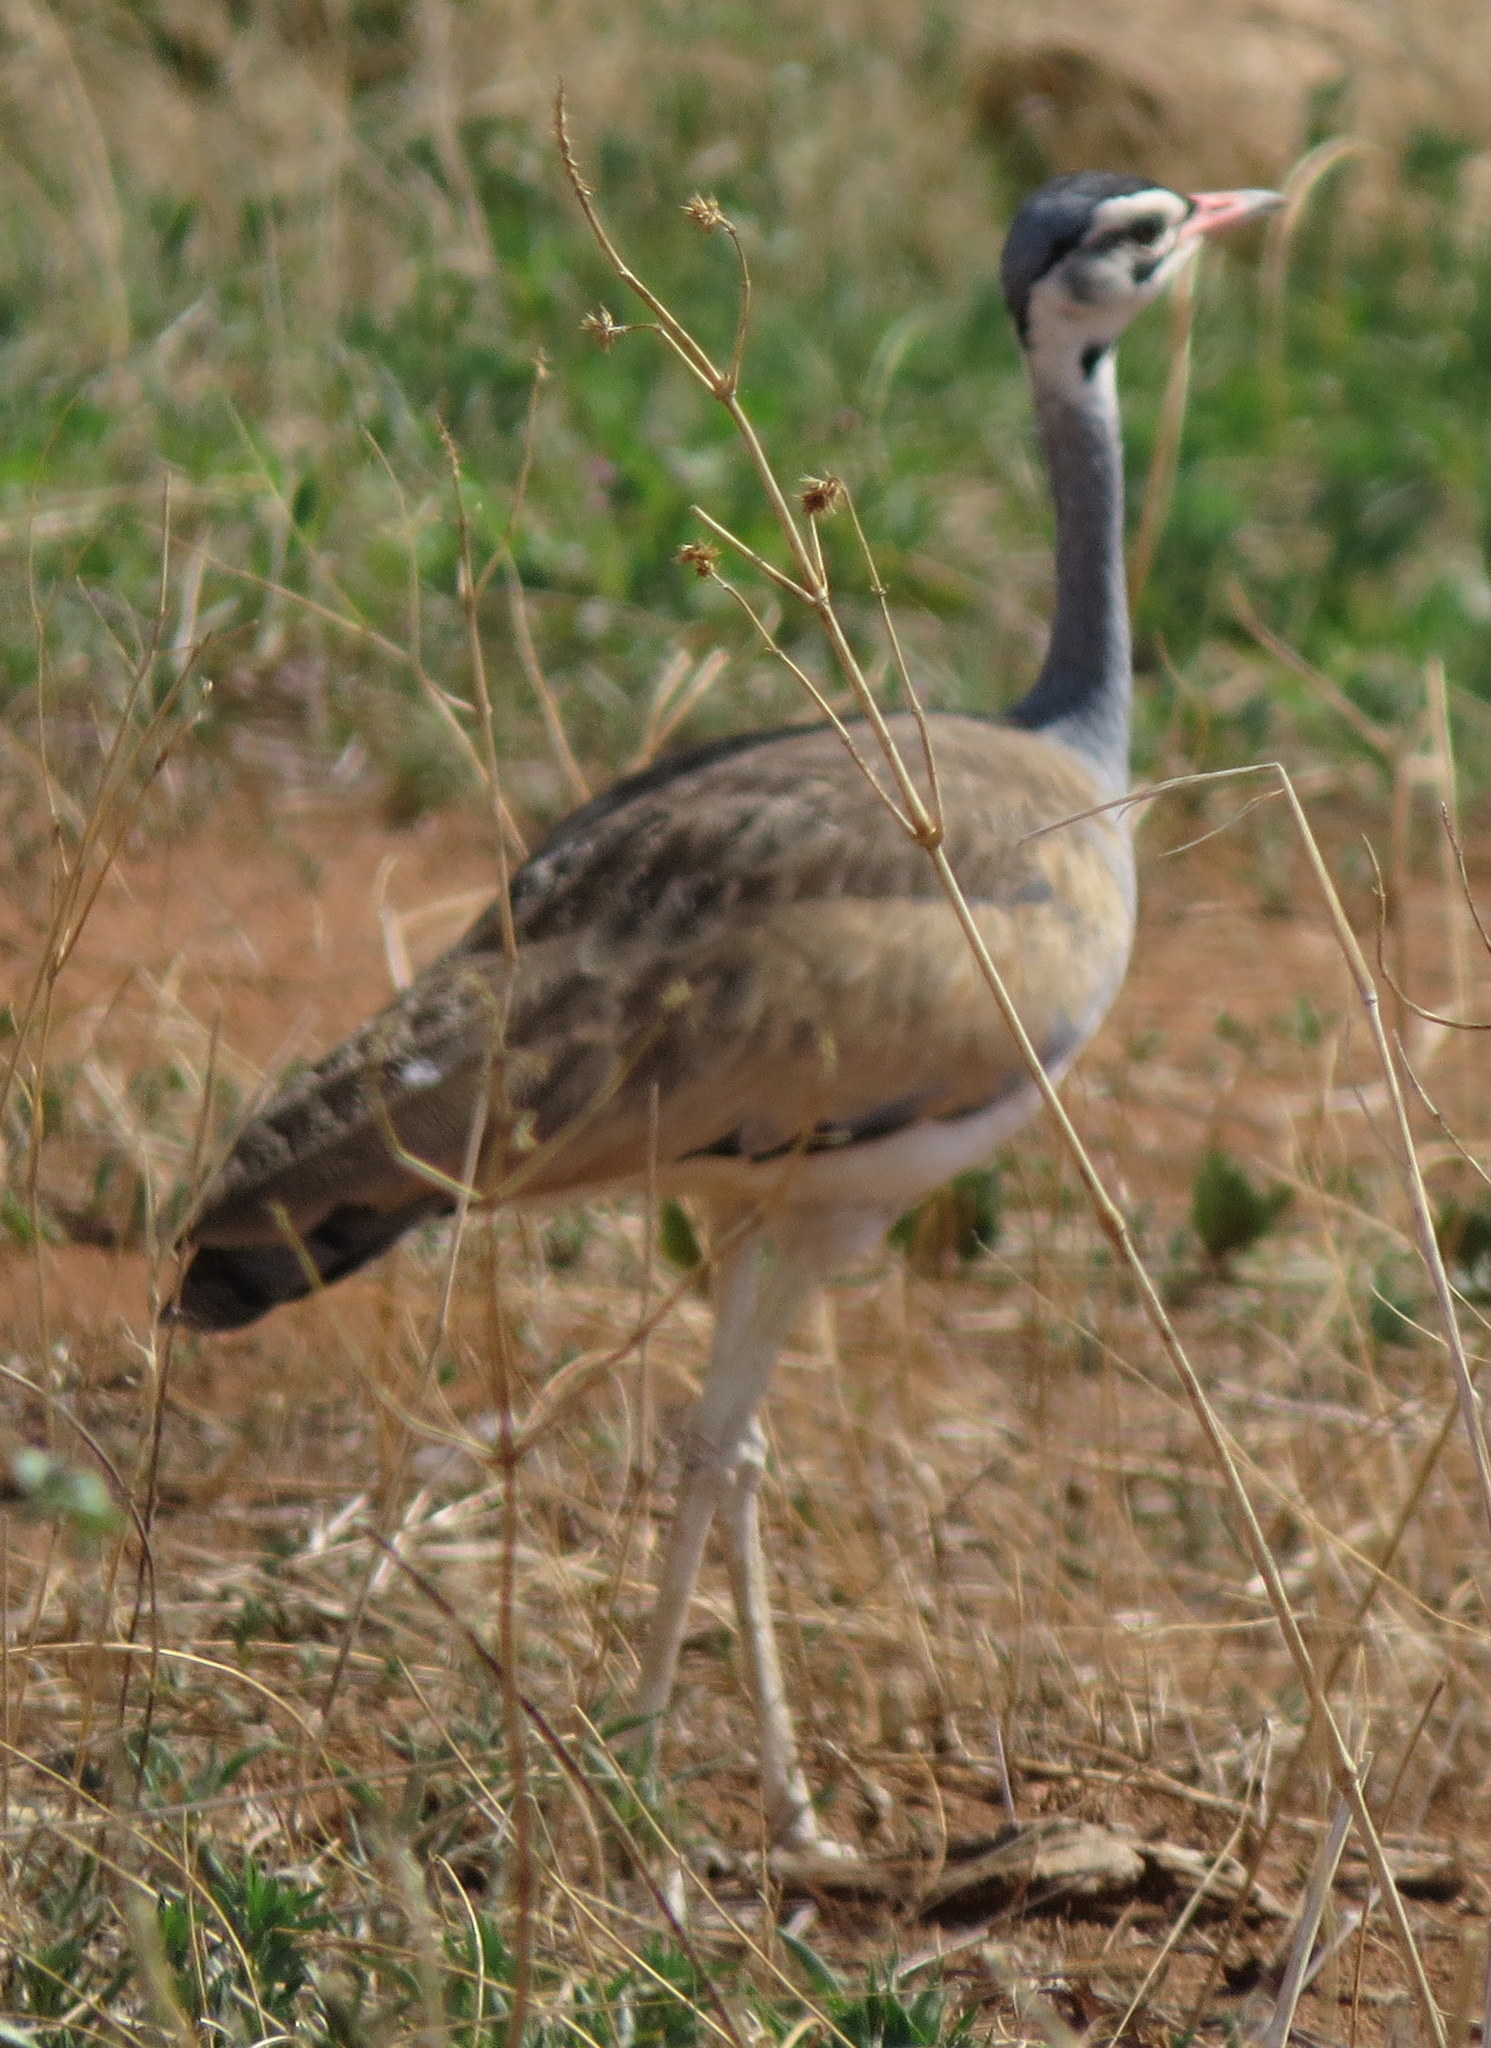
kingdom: Animalia
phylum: Chordata
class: Aves
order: Otidiformes
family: Otididae
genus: Eupodotis
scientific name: Eupodotis senegalensis
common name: White-bellied bustard
